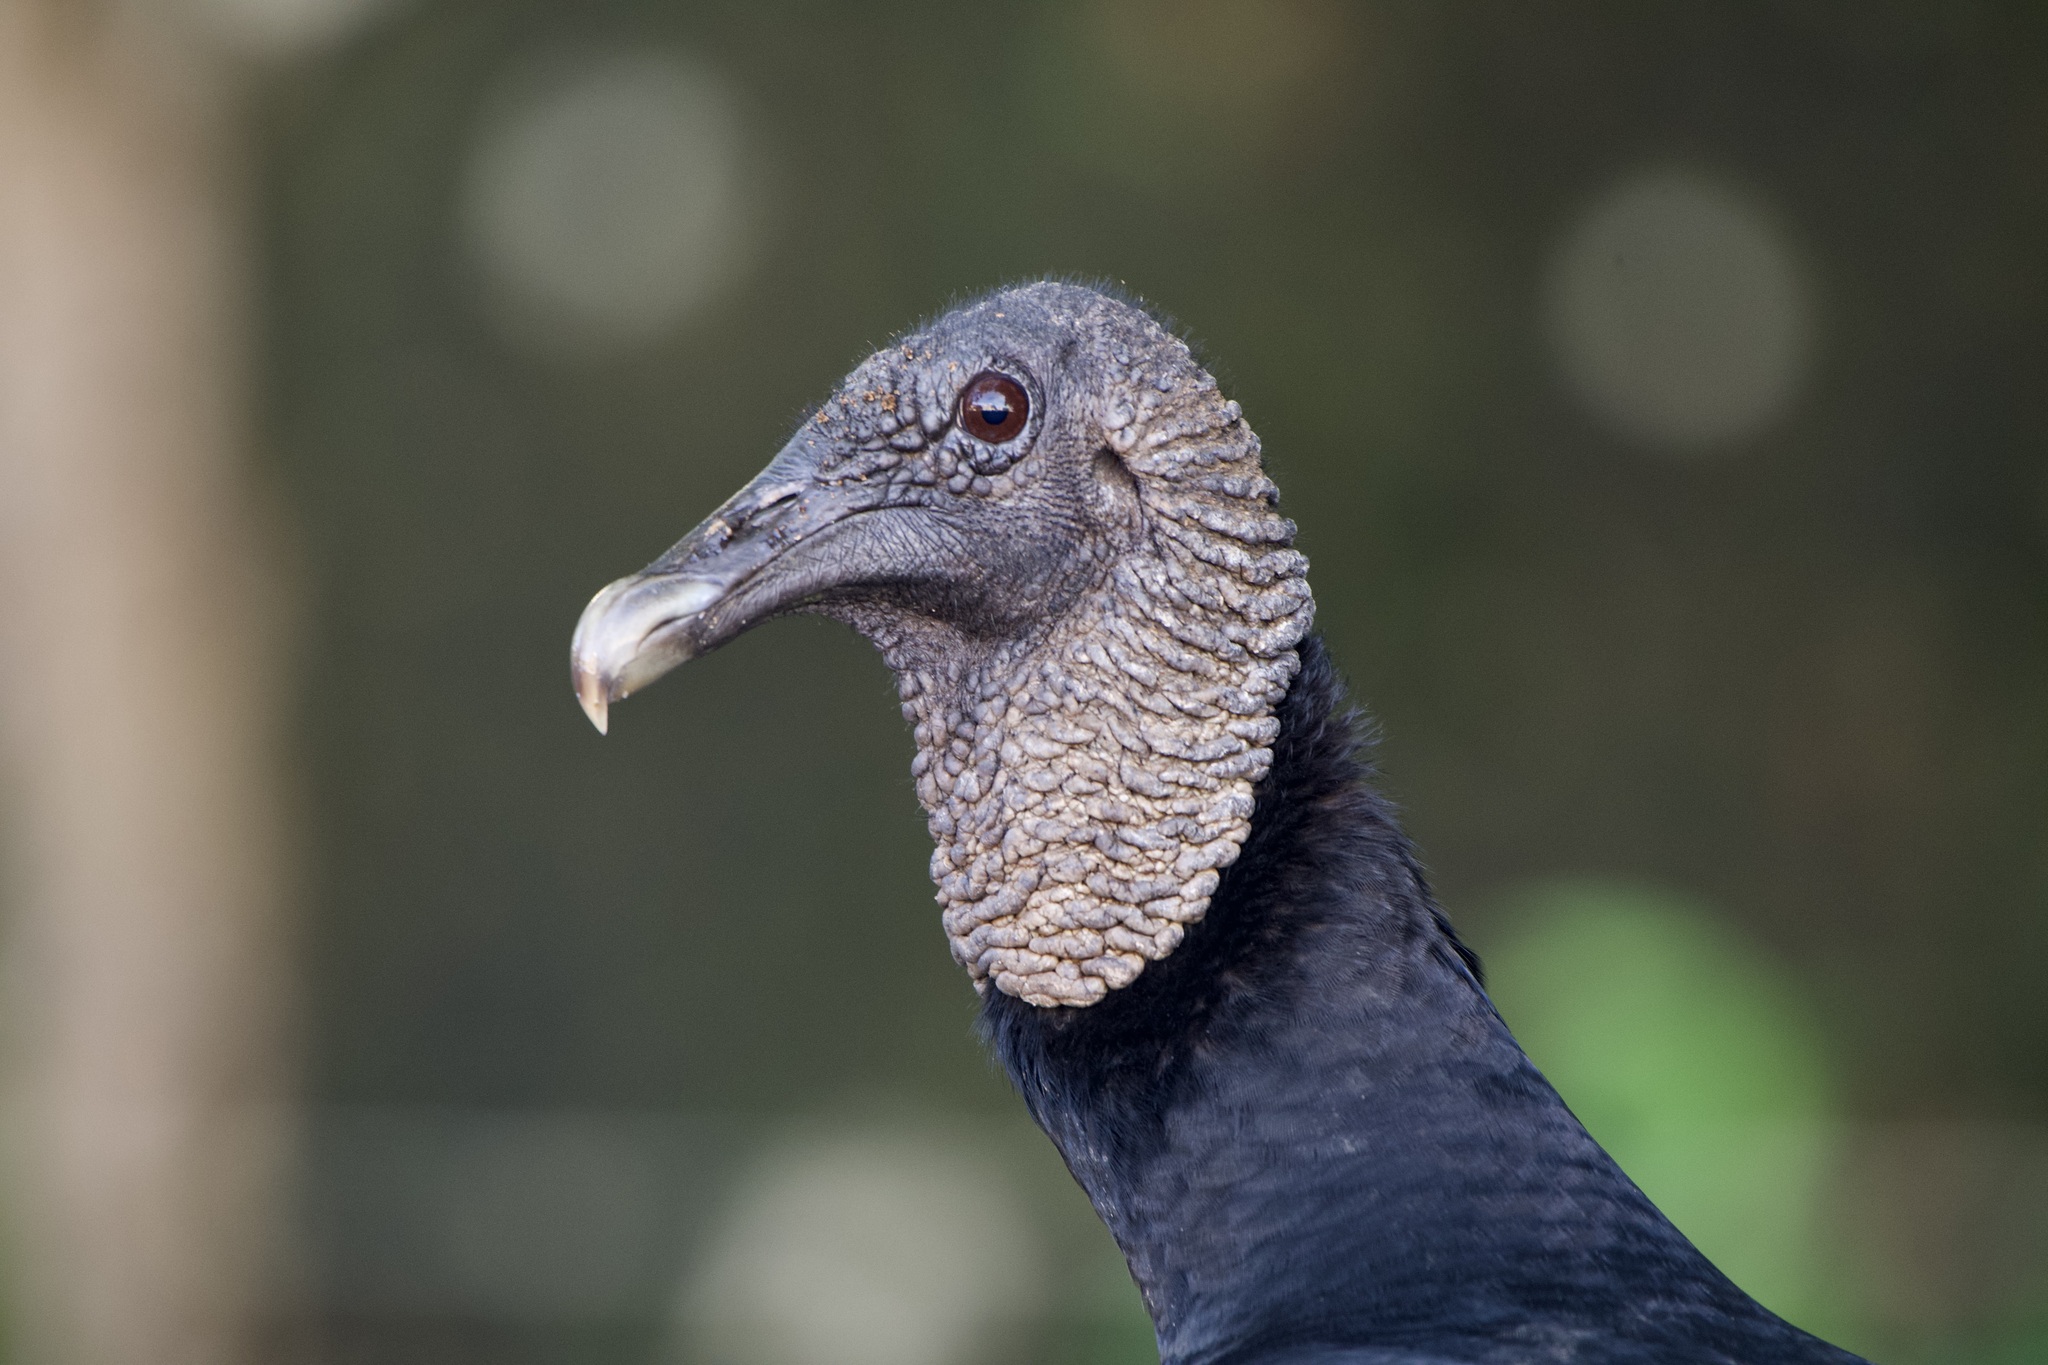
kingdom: Animalia
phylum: Chordata
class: Aves
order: Accipitriformes
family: Cathartidae
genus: Coragyps
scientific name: Coragyps atratus
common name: Black vulture
